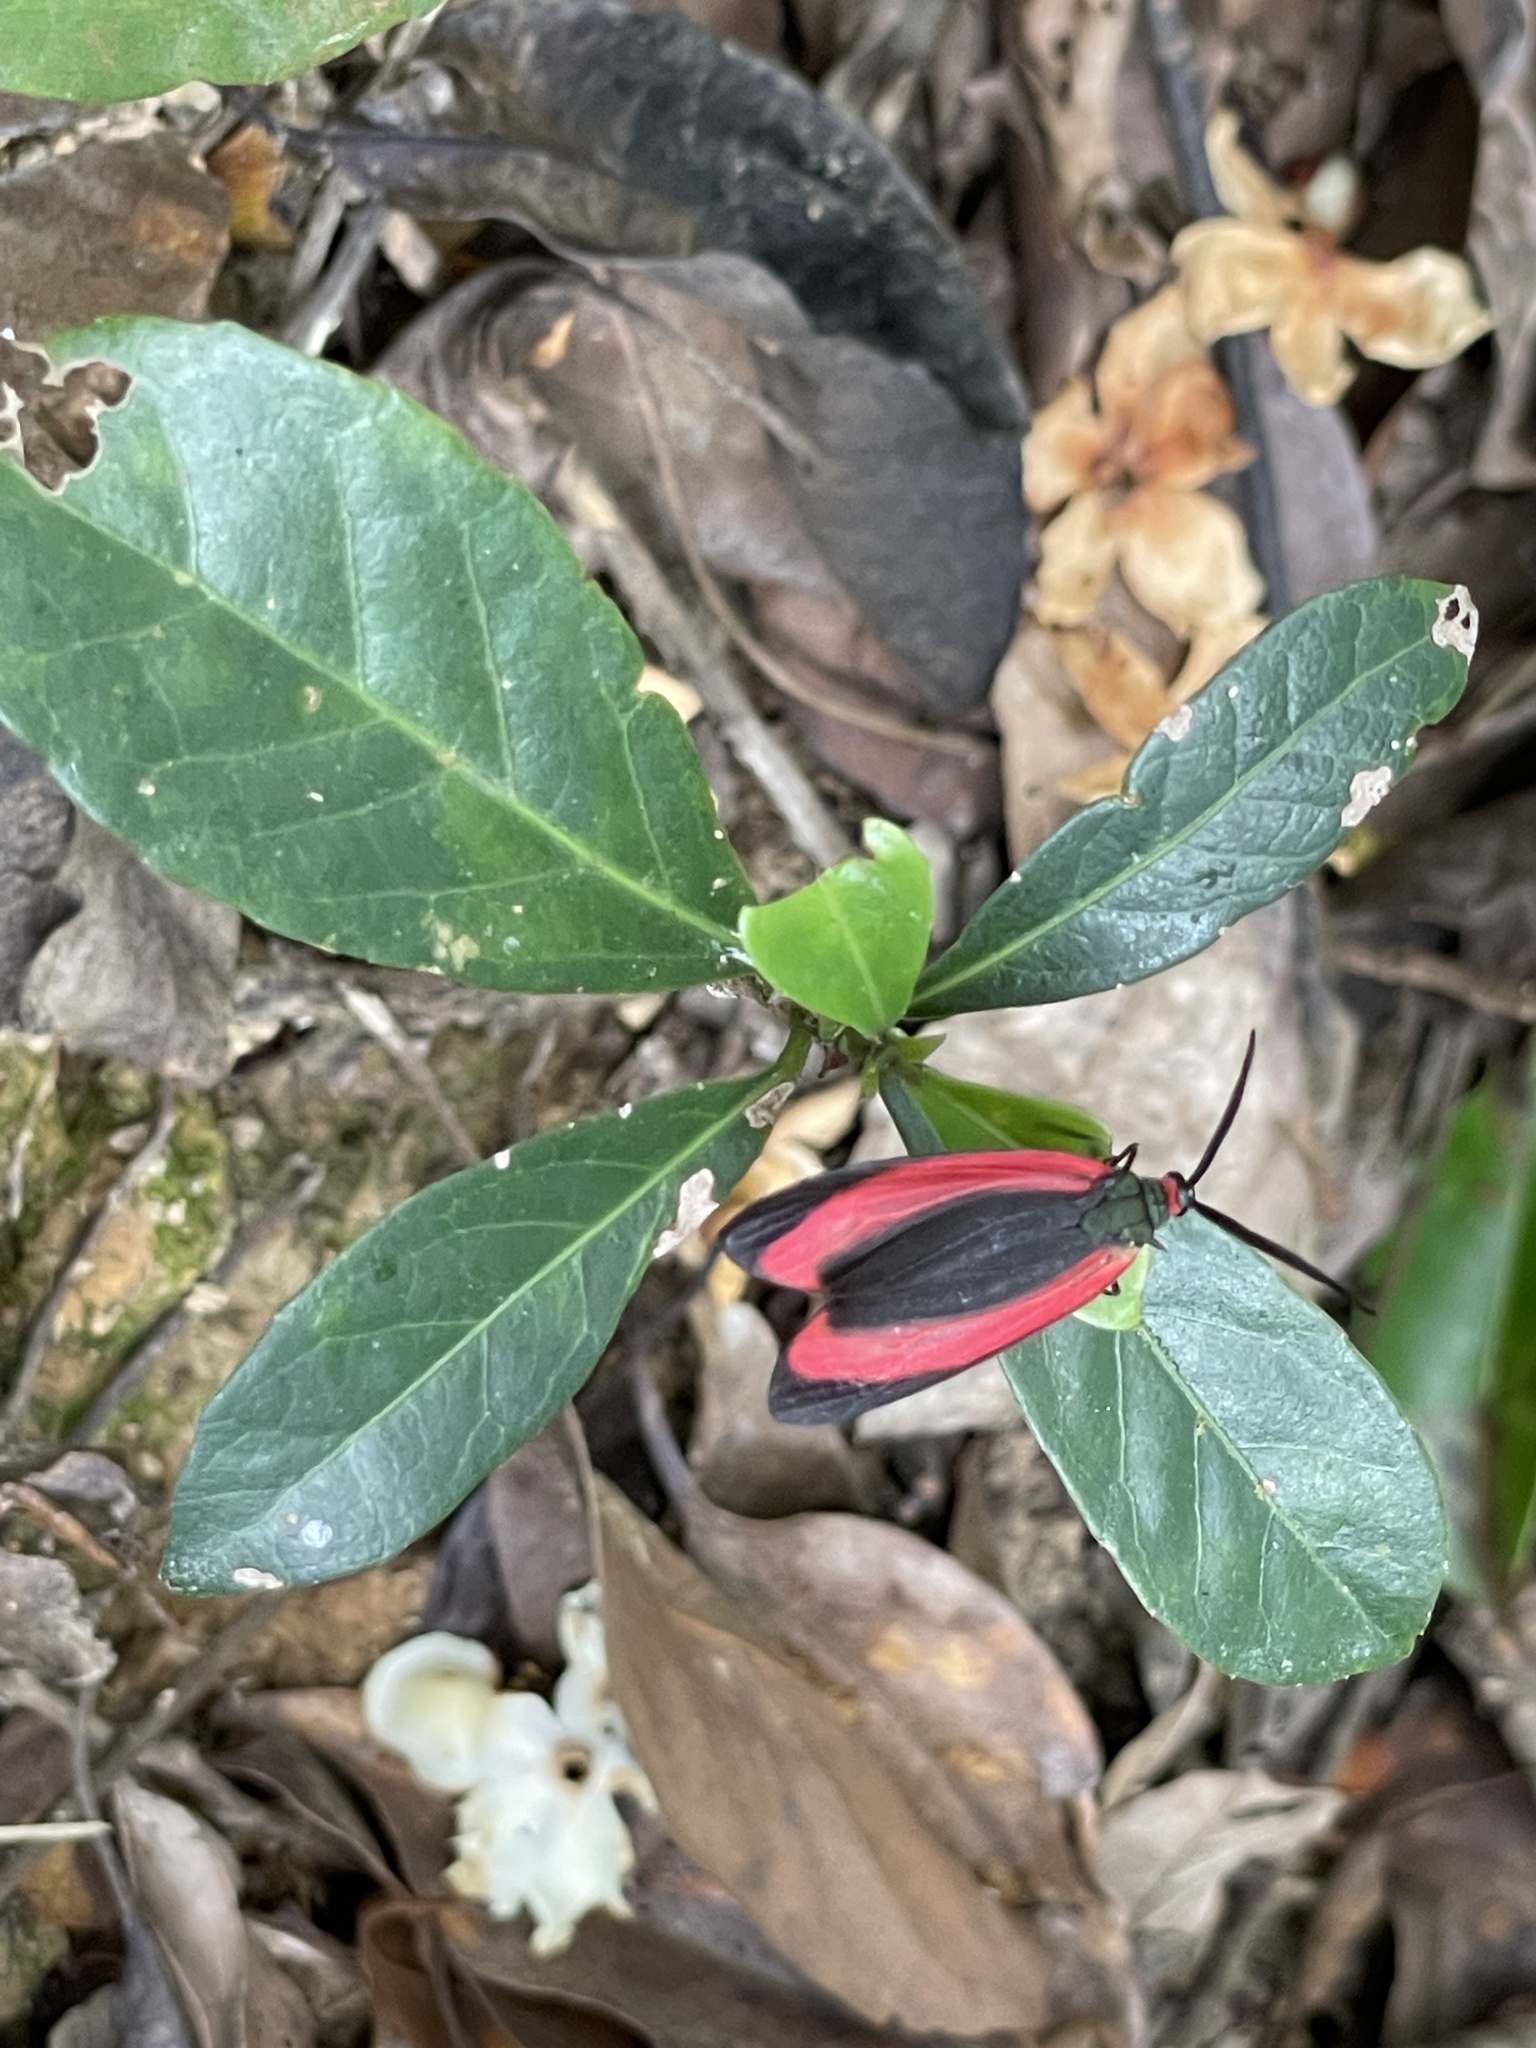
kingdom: Animalia
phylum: Arthropoda
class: Insecta
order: Lepidoptera
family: Zygaenidae
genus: Retina
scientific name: Retina rubrivitta
